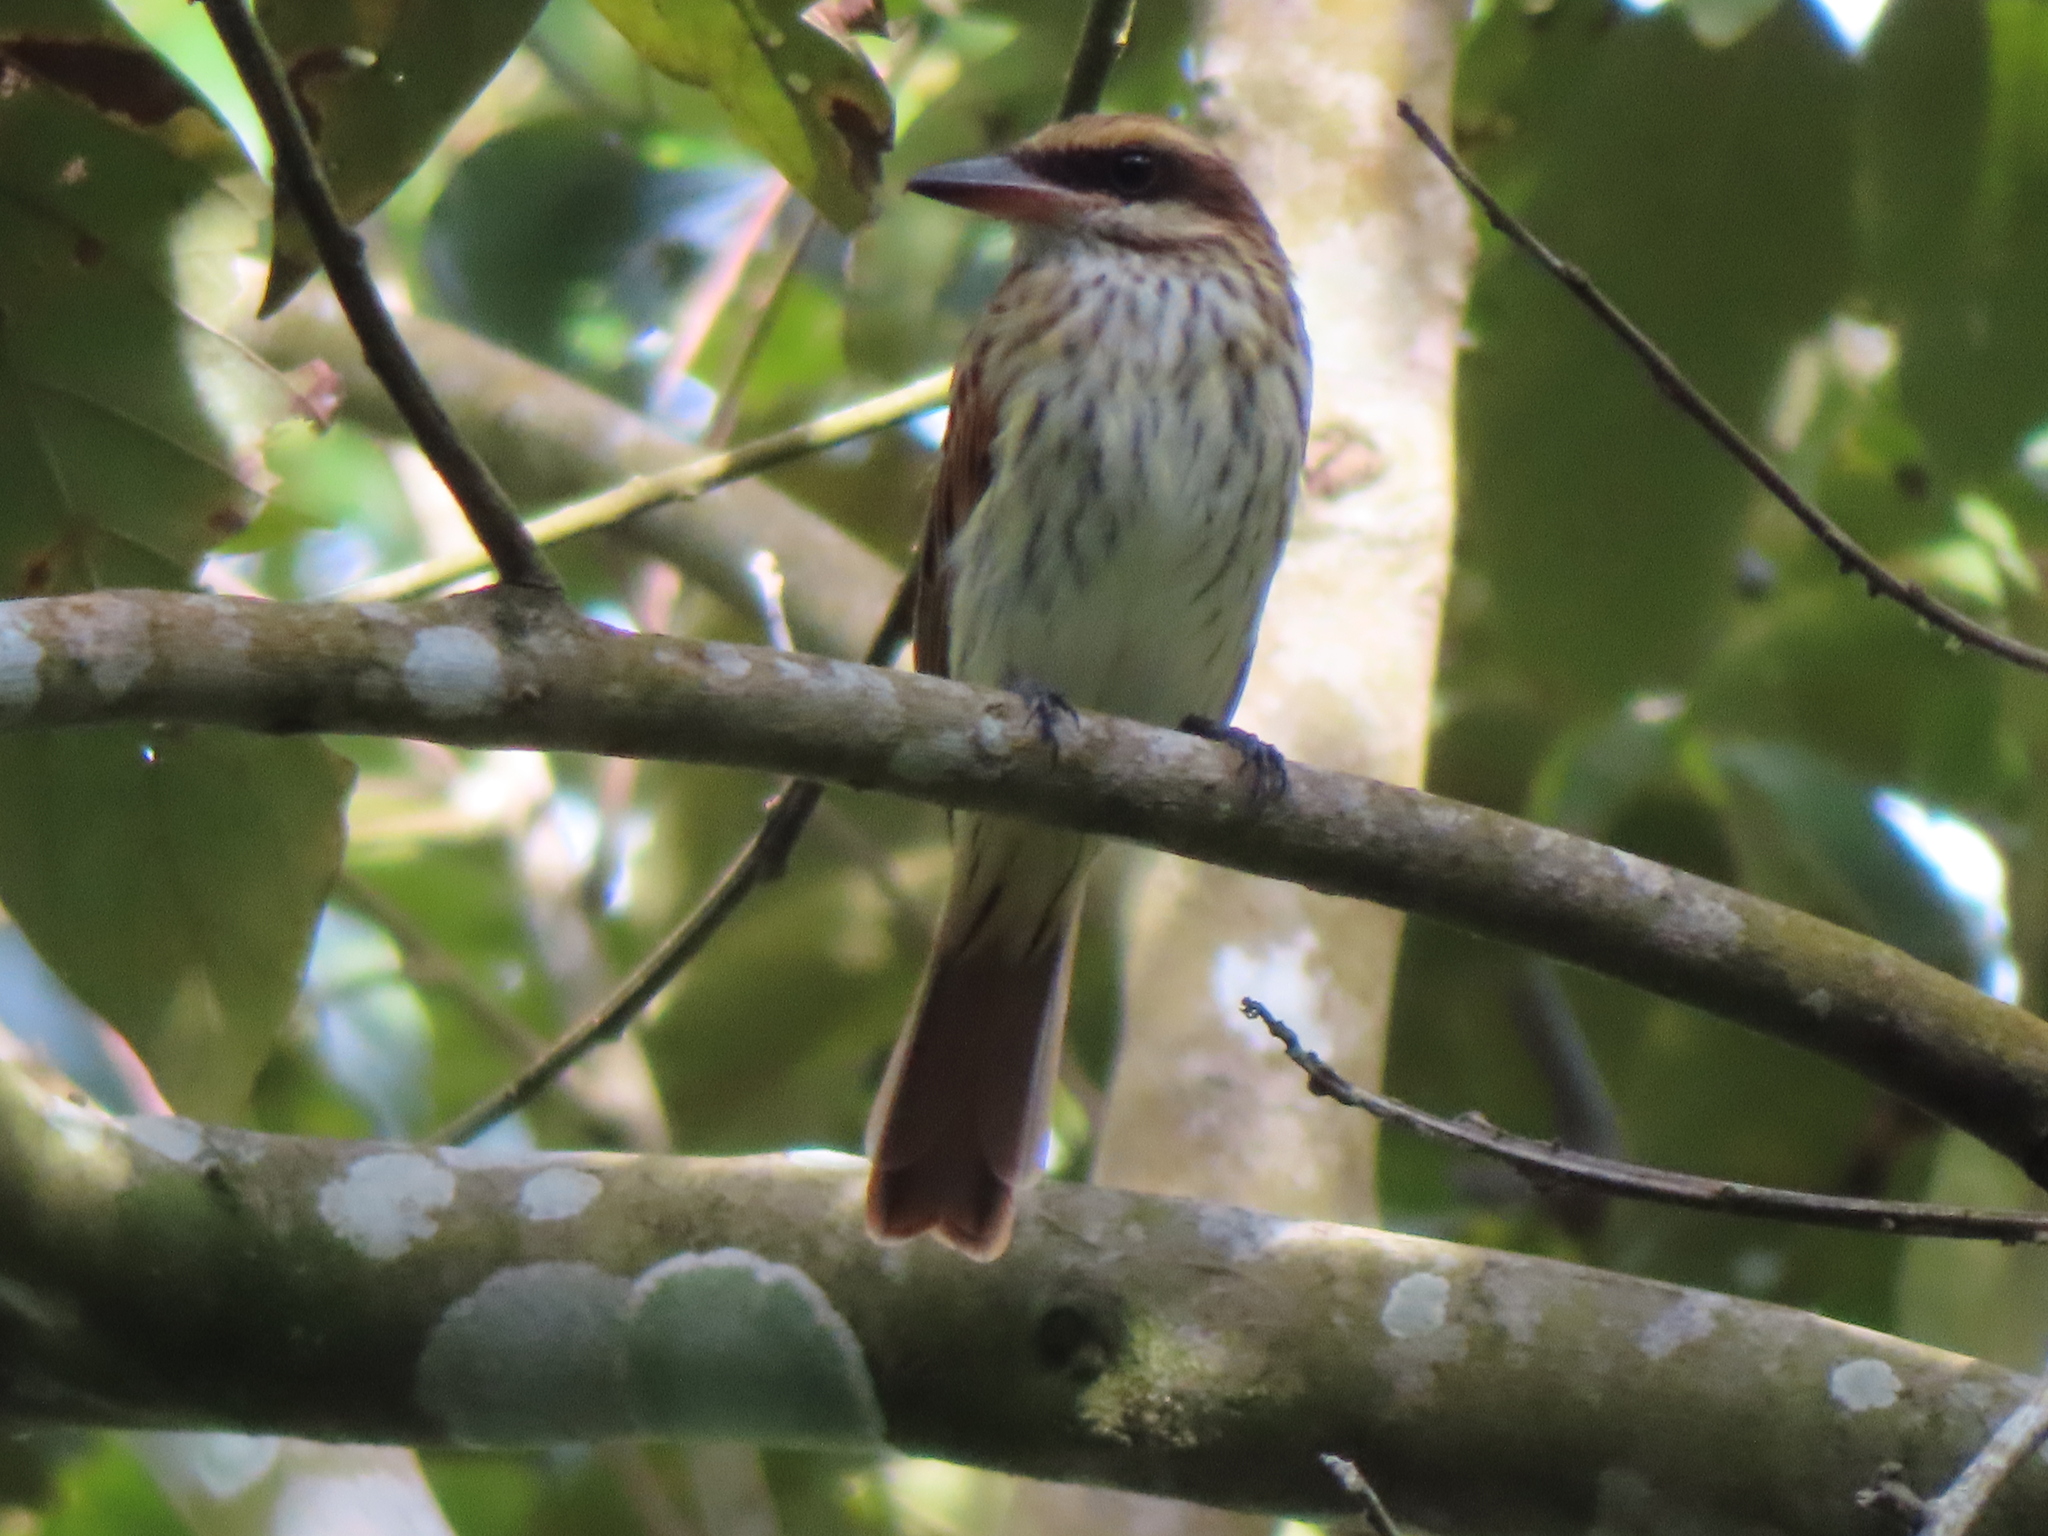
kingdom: Animalia
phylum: Chordata
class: Aves
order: Passeriformes
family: Tyrannidae
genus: Myiodynastes
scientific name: Myiodynastes maculatus
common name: Streaked flycatcher
